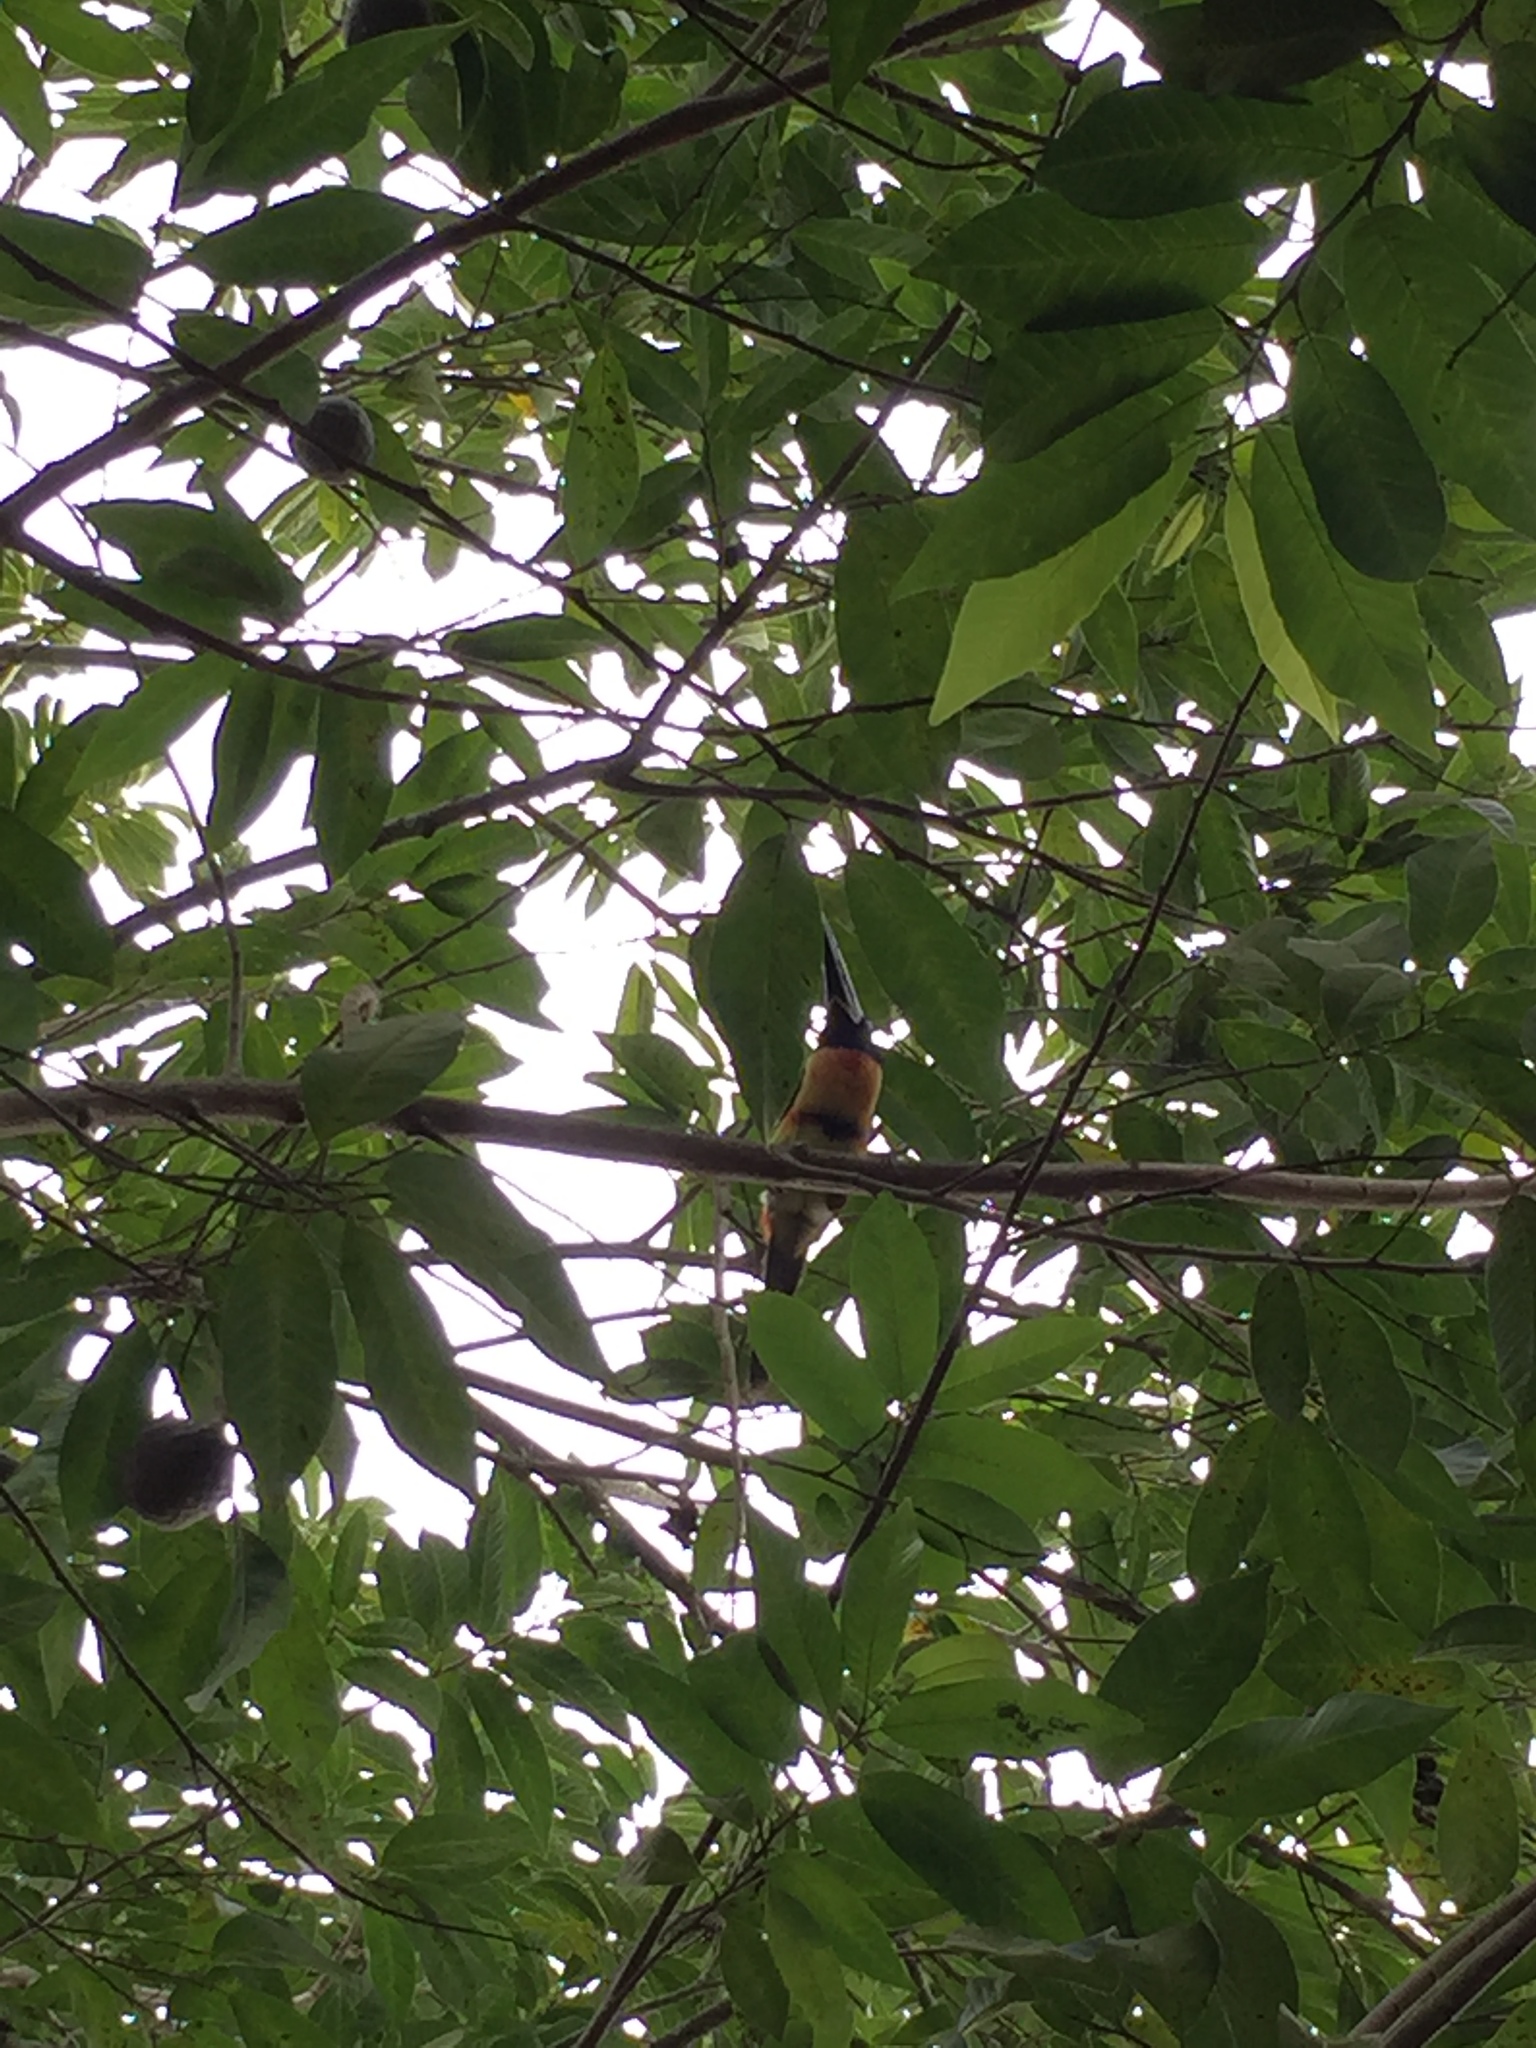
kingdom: Animalia
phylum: Chordata
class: Aves
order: Piciformes
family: Ramphastidae
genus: Pteroglossus
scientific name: Pteroglossus torquatus
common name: Collared aracari
